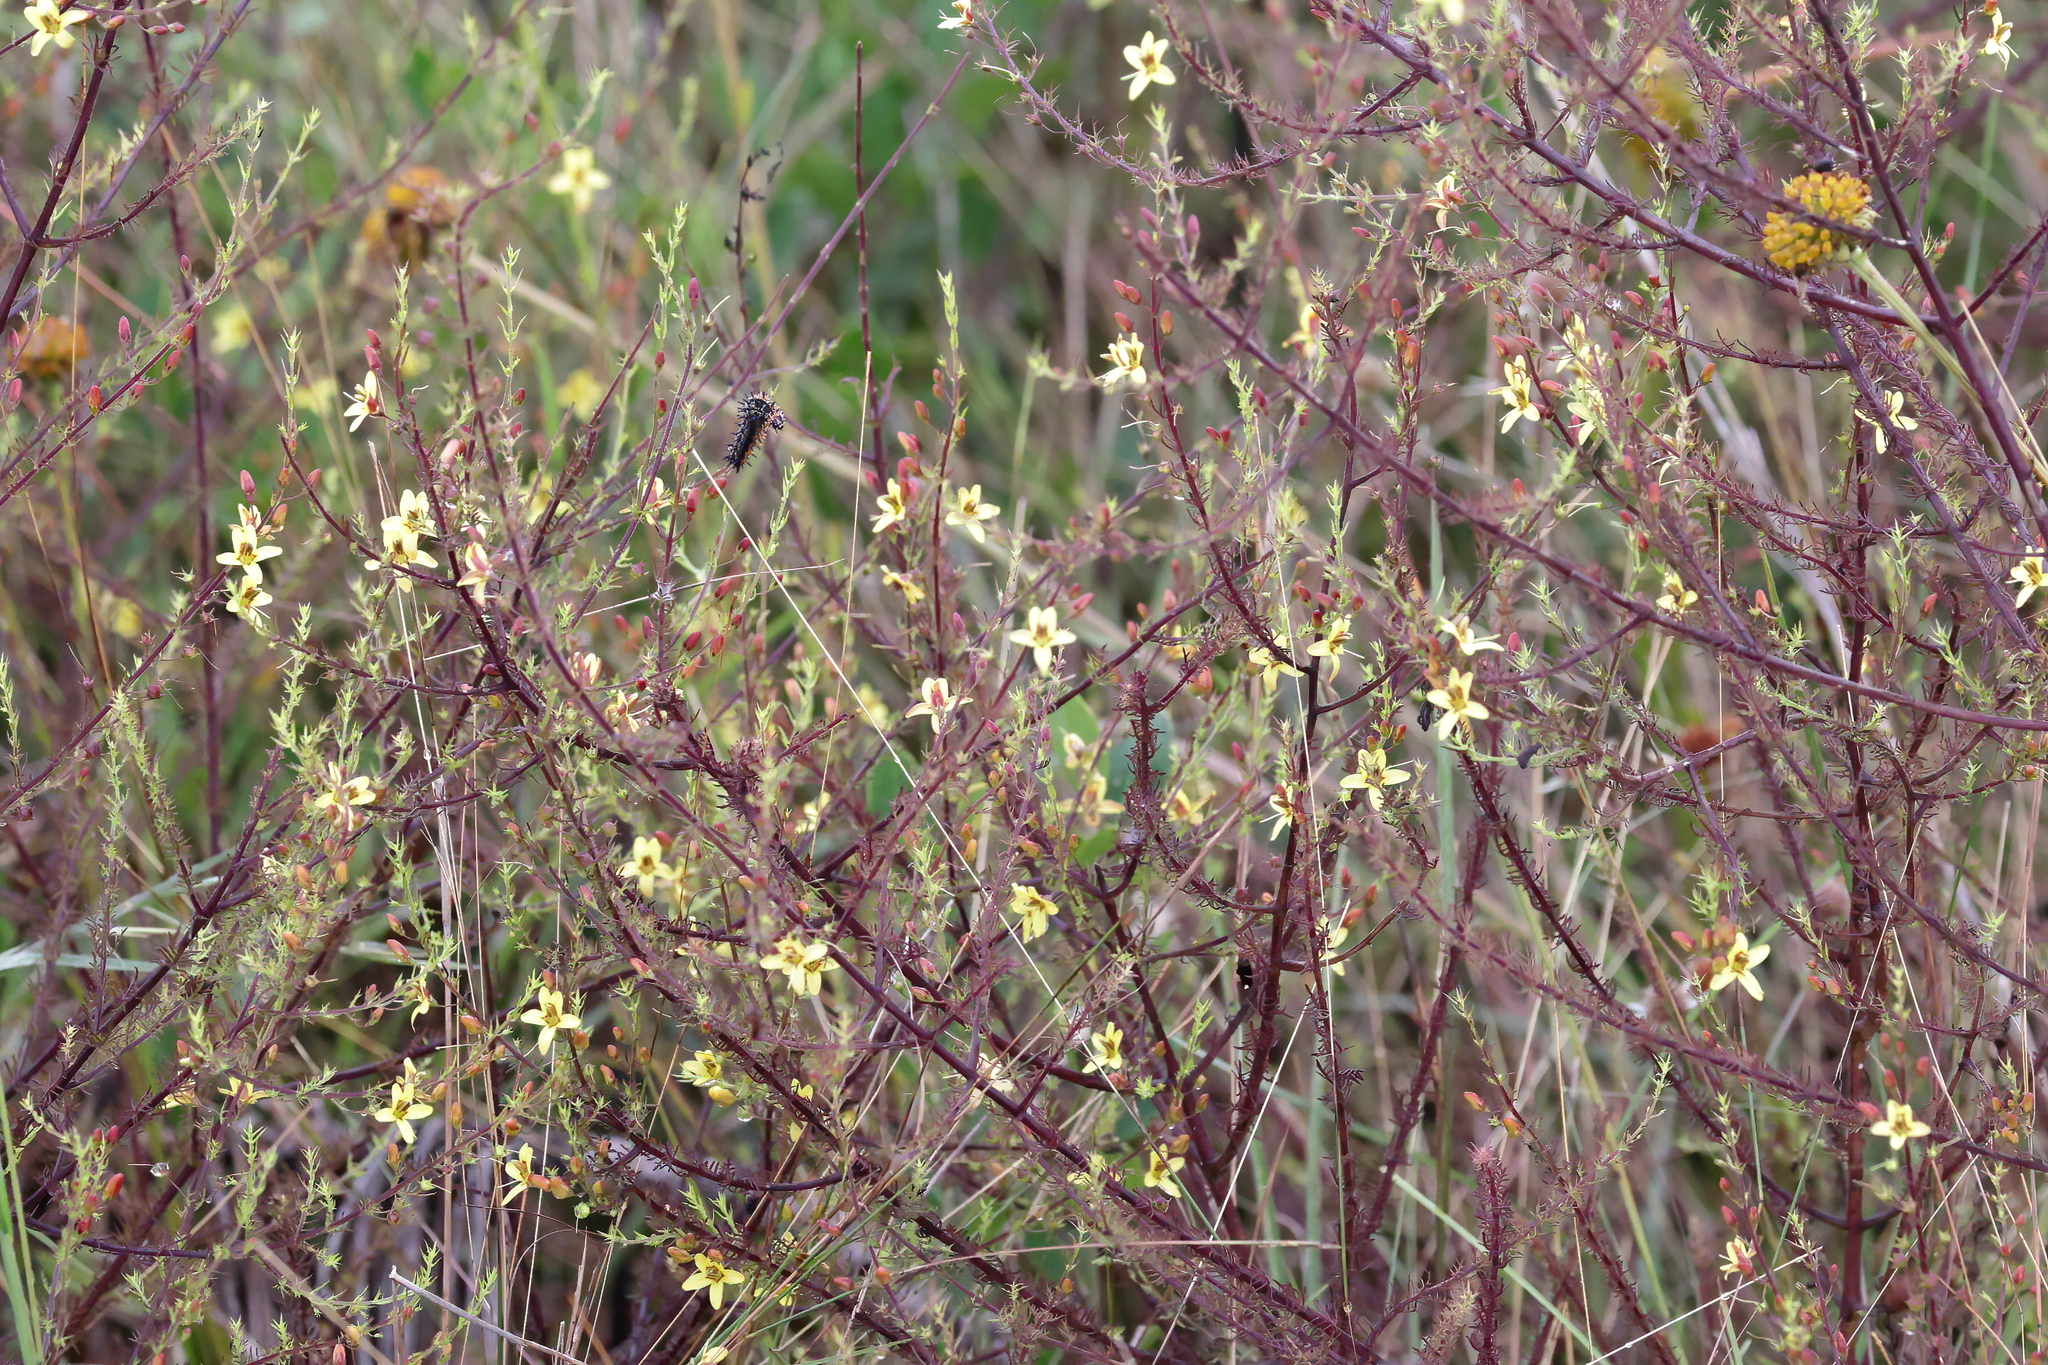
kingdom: Plantae
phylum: Tracheophyta
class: Magnoliopsida
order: Lamiales
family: Orobanchaceae
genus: Seymeria
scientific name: Seymeria cassioides
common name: Yaupon black-senna
